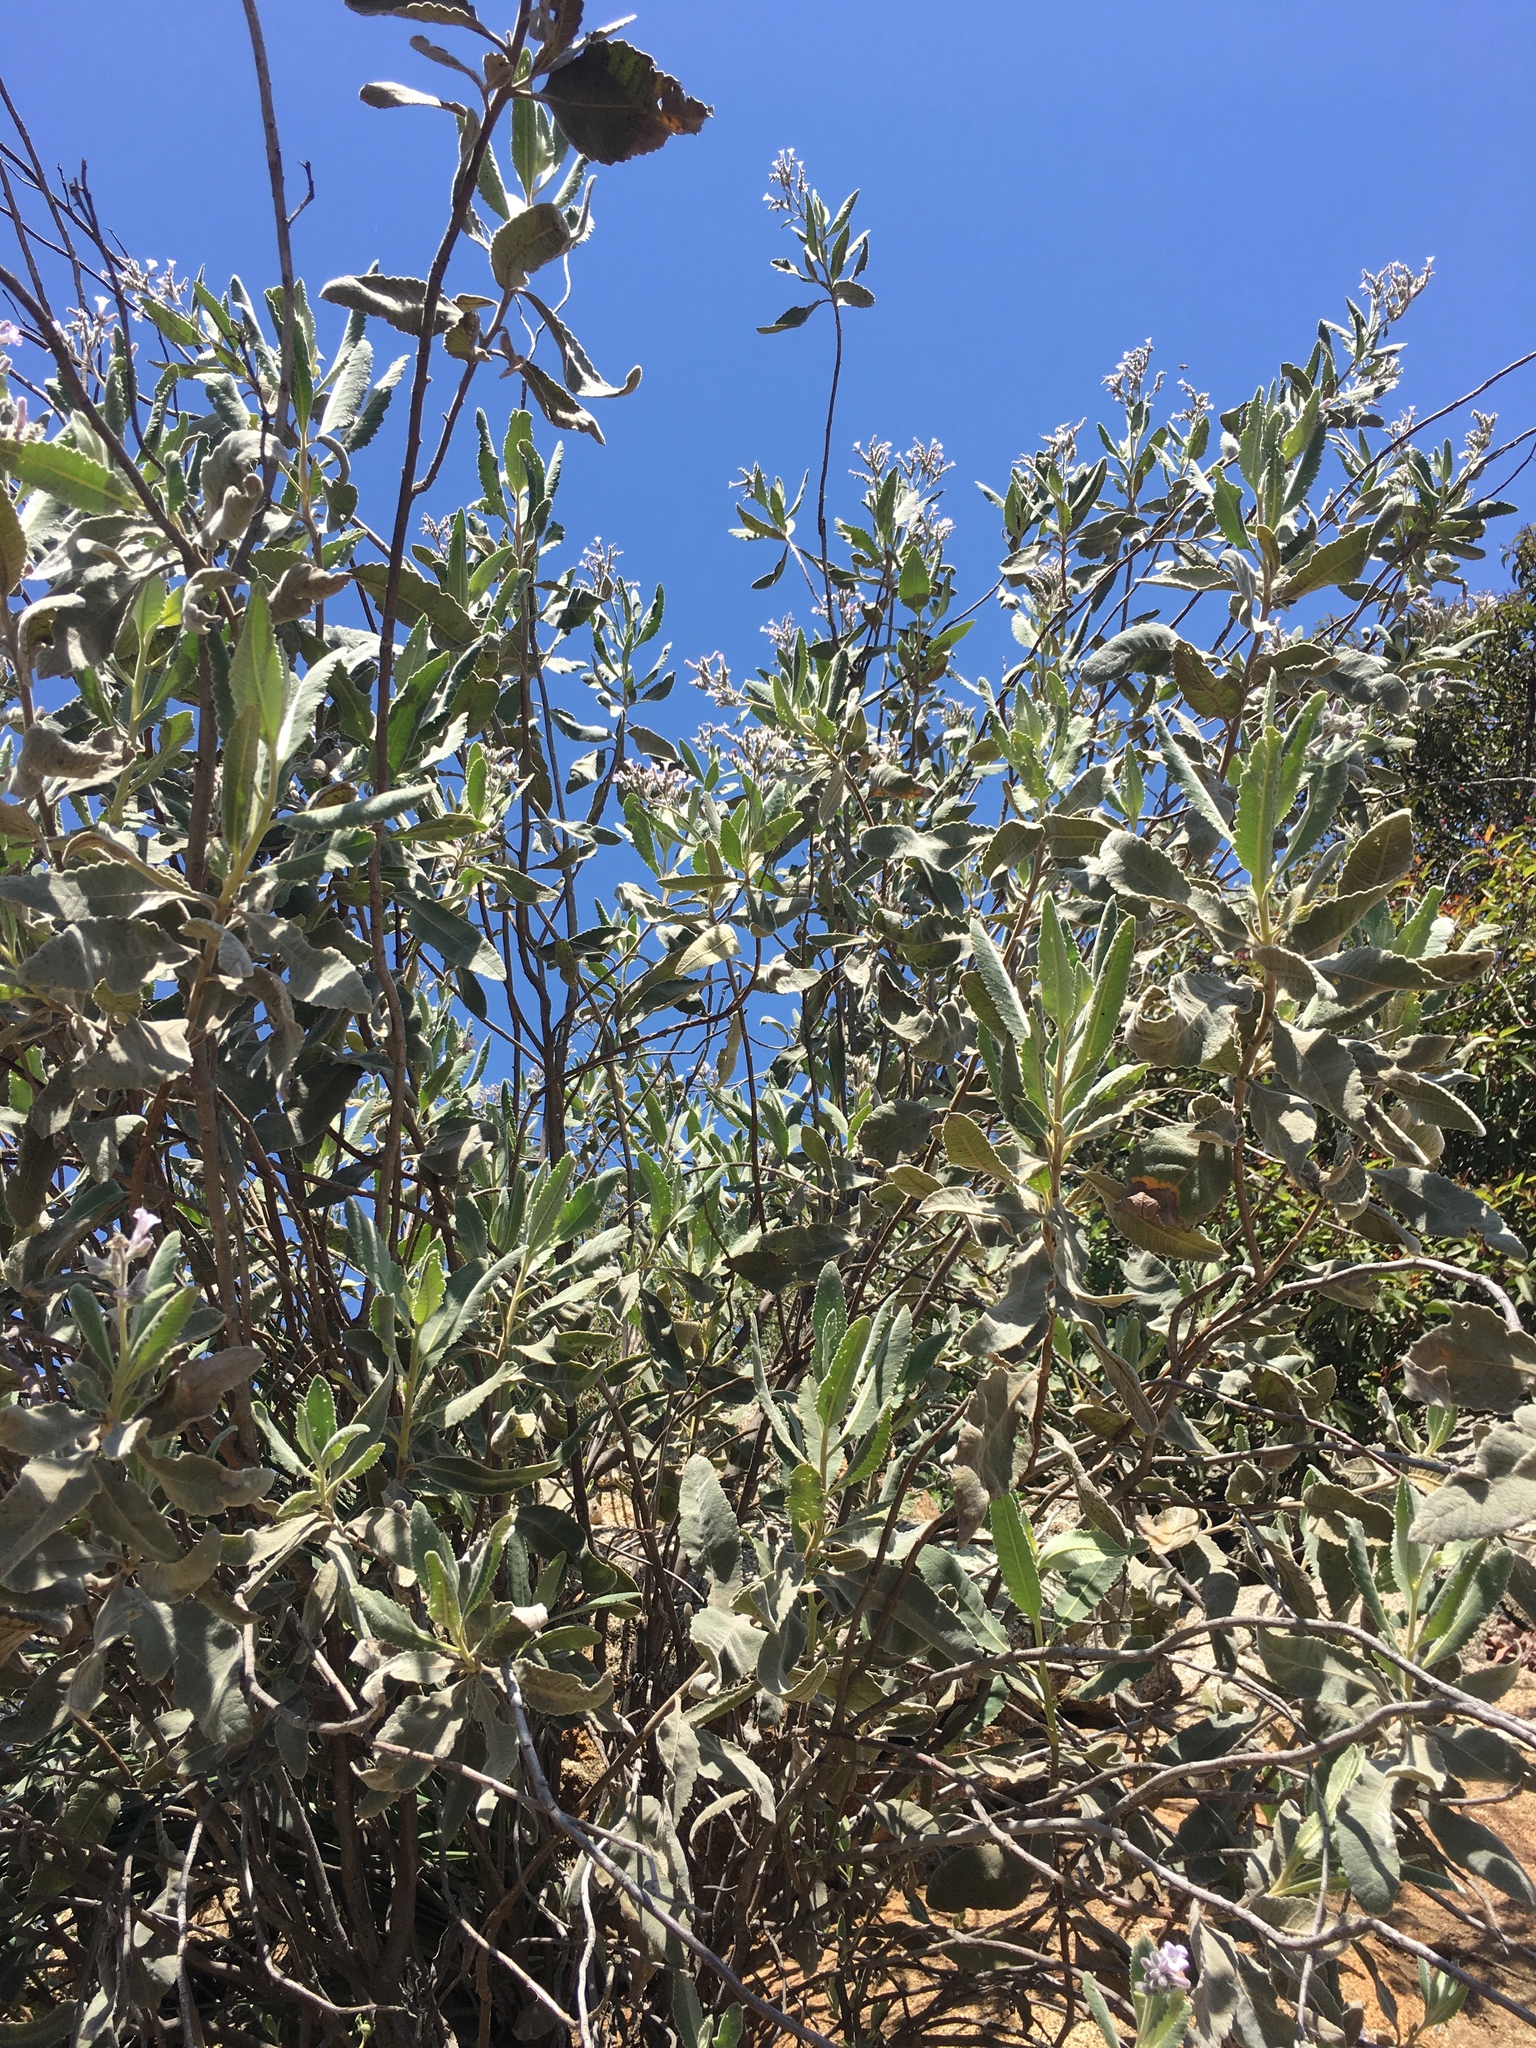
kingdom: Plantae
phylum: Tracheophyta
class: Magnoliopsida
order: Boraginales
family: Namaceae
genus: Eriodictyon
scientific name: Eriodictyon crassifolium
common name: Thick-leaf yerba-santa
